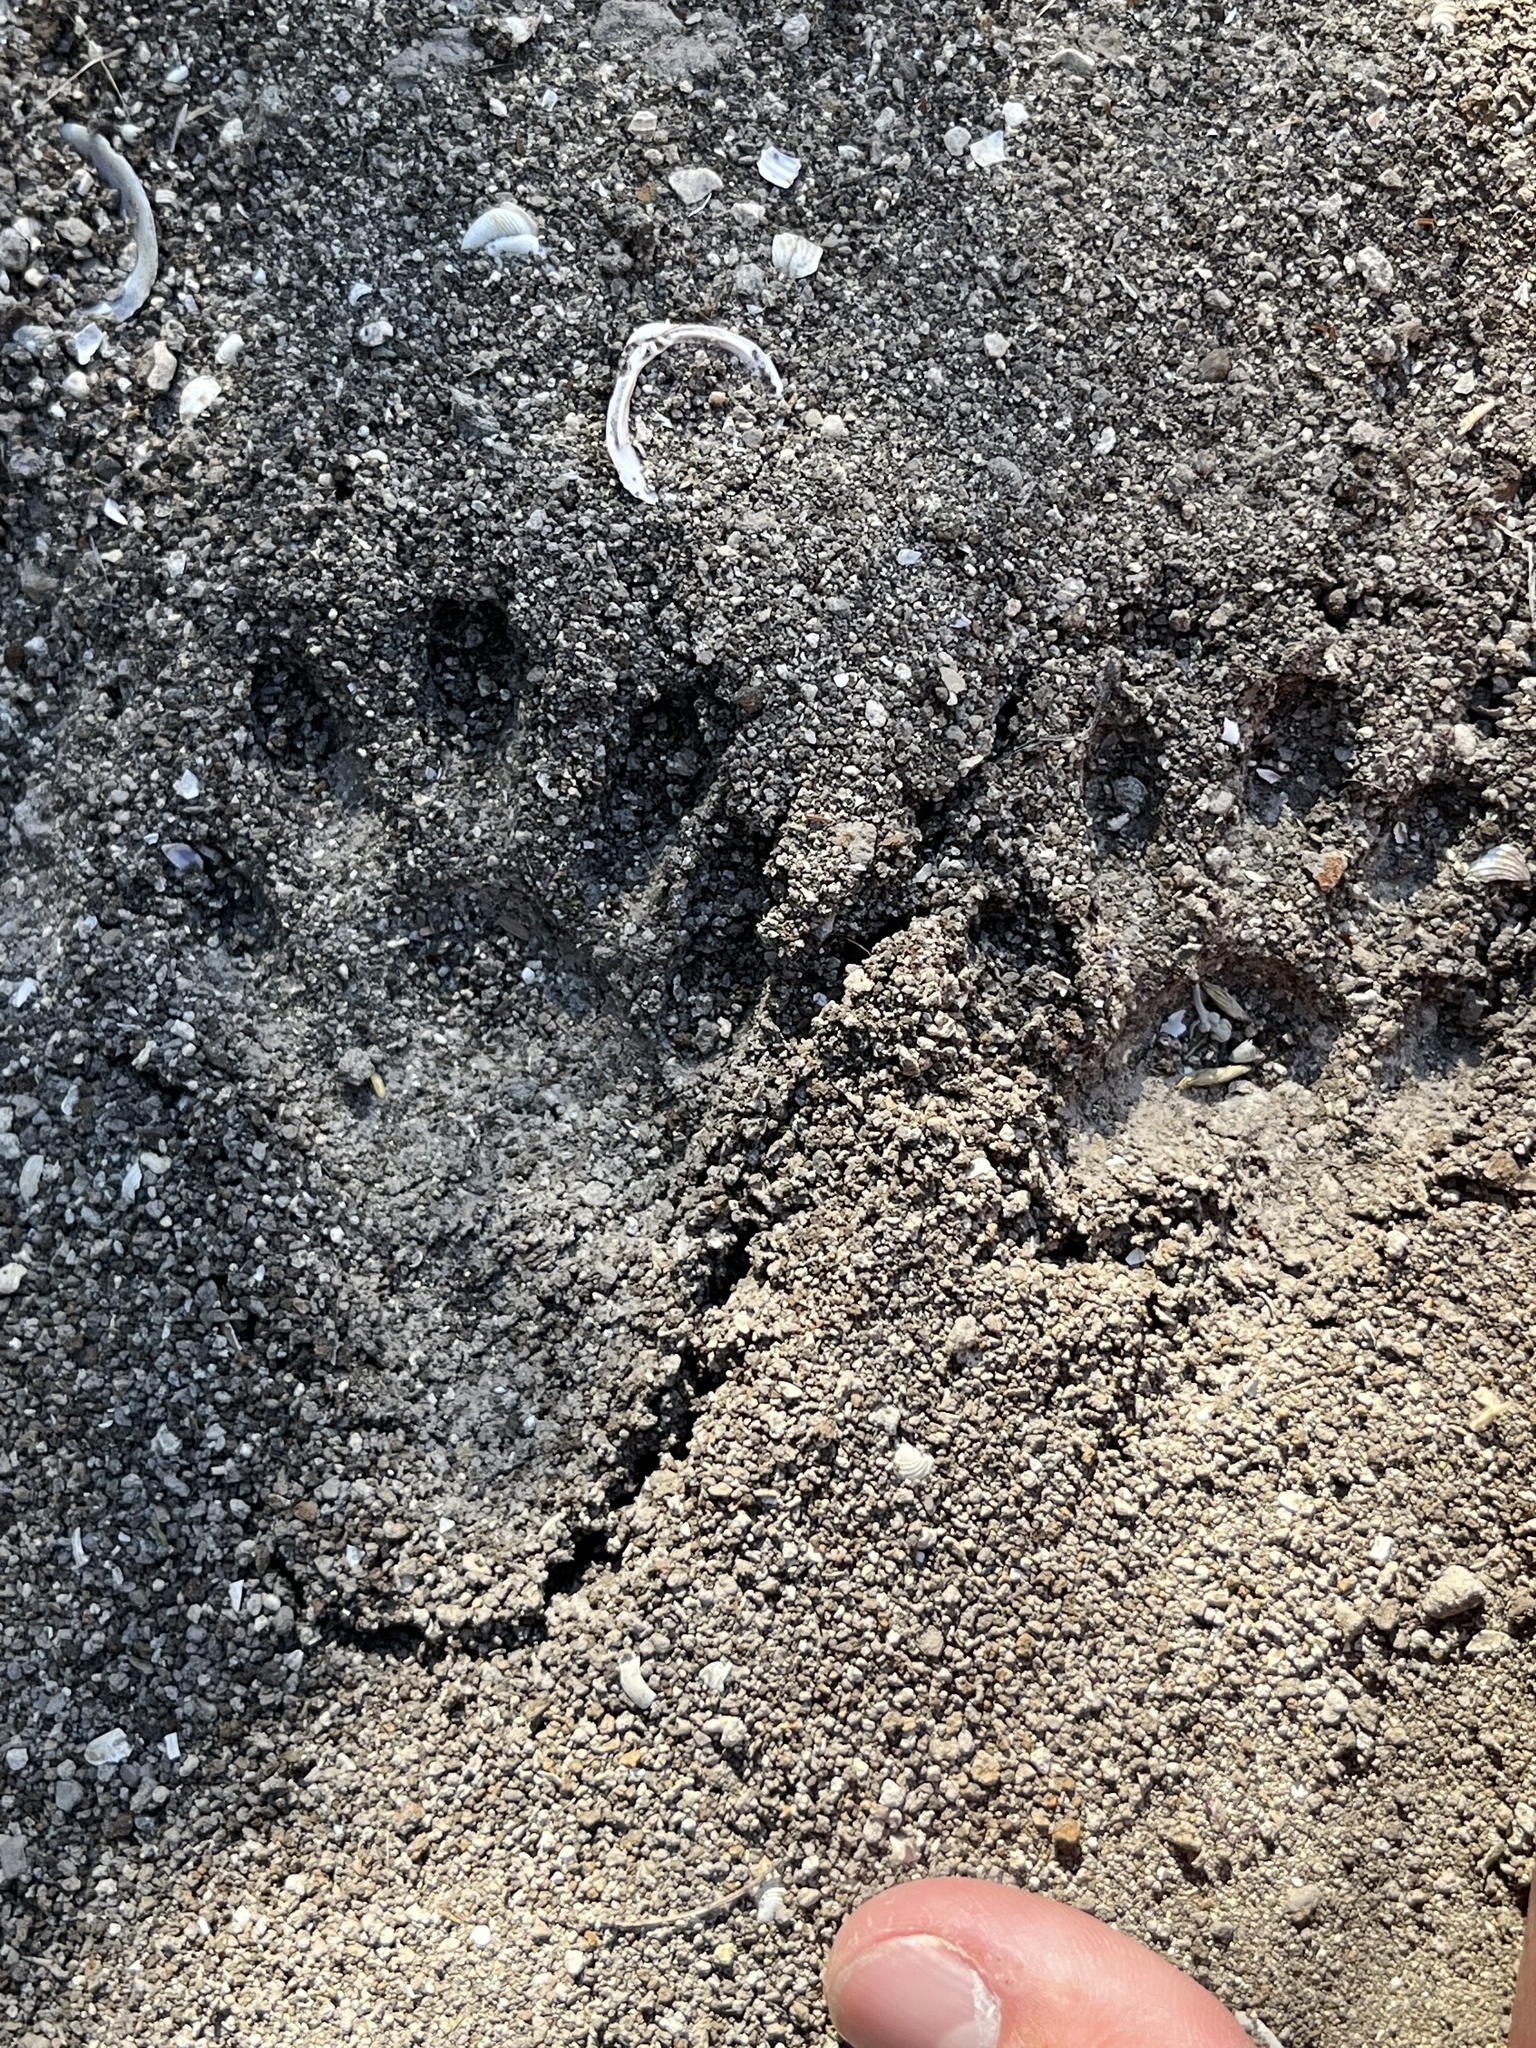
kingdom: Animalia
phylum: Chordata
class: Mammalia
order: Carnivora
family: Procyonidae
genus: Procyon
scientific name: Procyon lotor
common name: Raccoon
